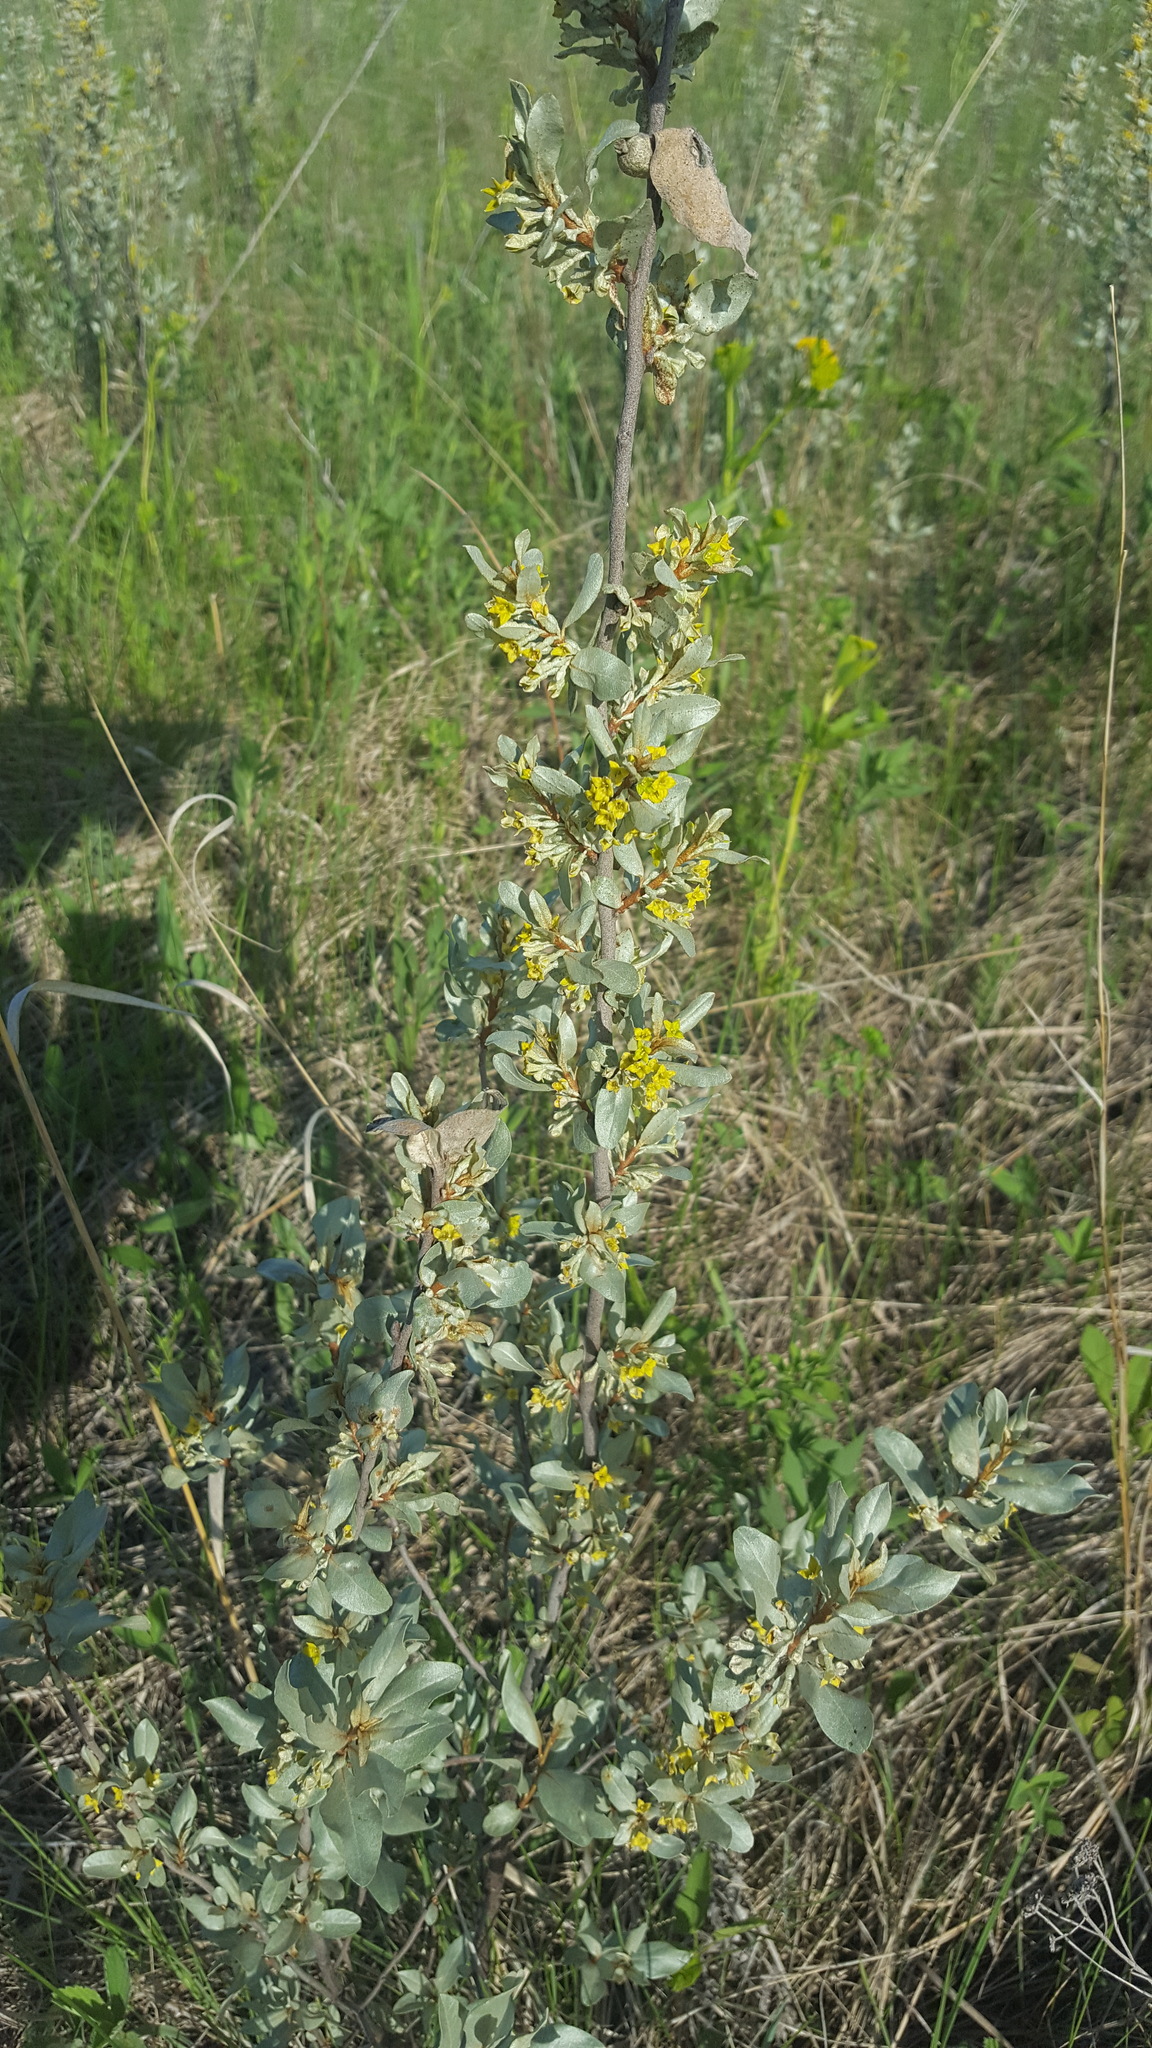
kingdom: Plantae
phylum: Tracheophyta
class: Magnoliopsida
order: Rosales
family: Elaeagnaceae
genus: Elaeagnus
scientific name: Elaeagnus commutata
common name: Silverberry
